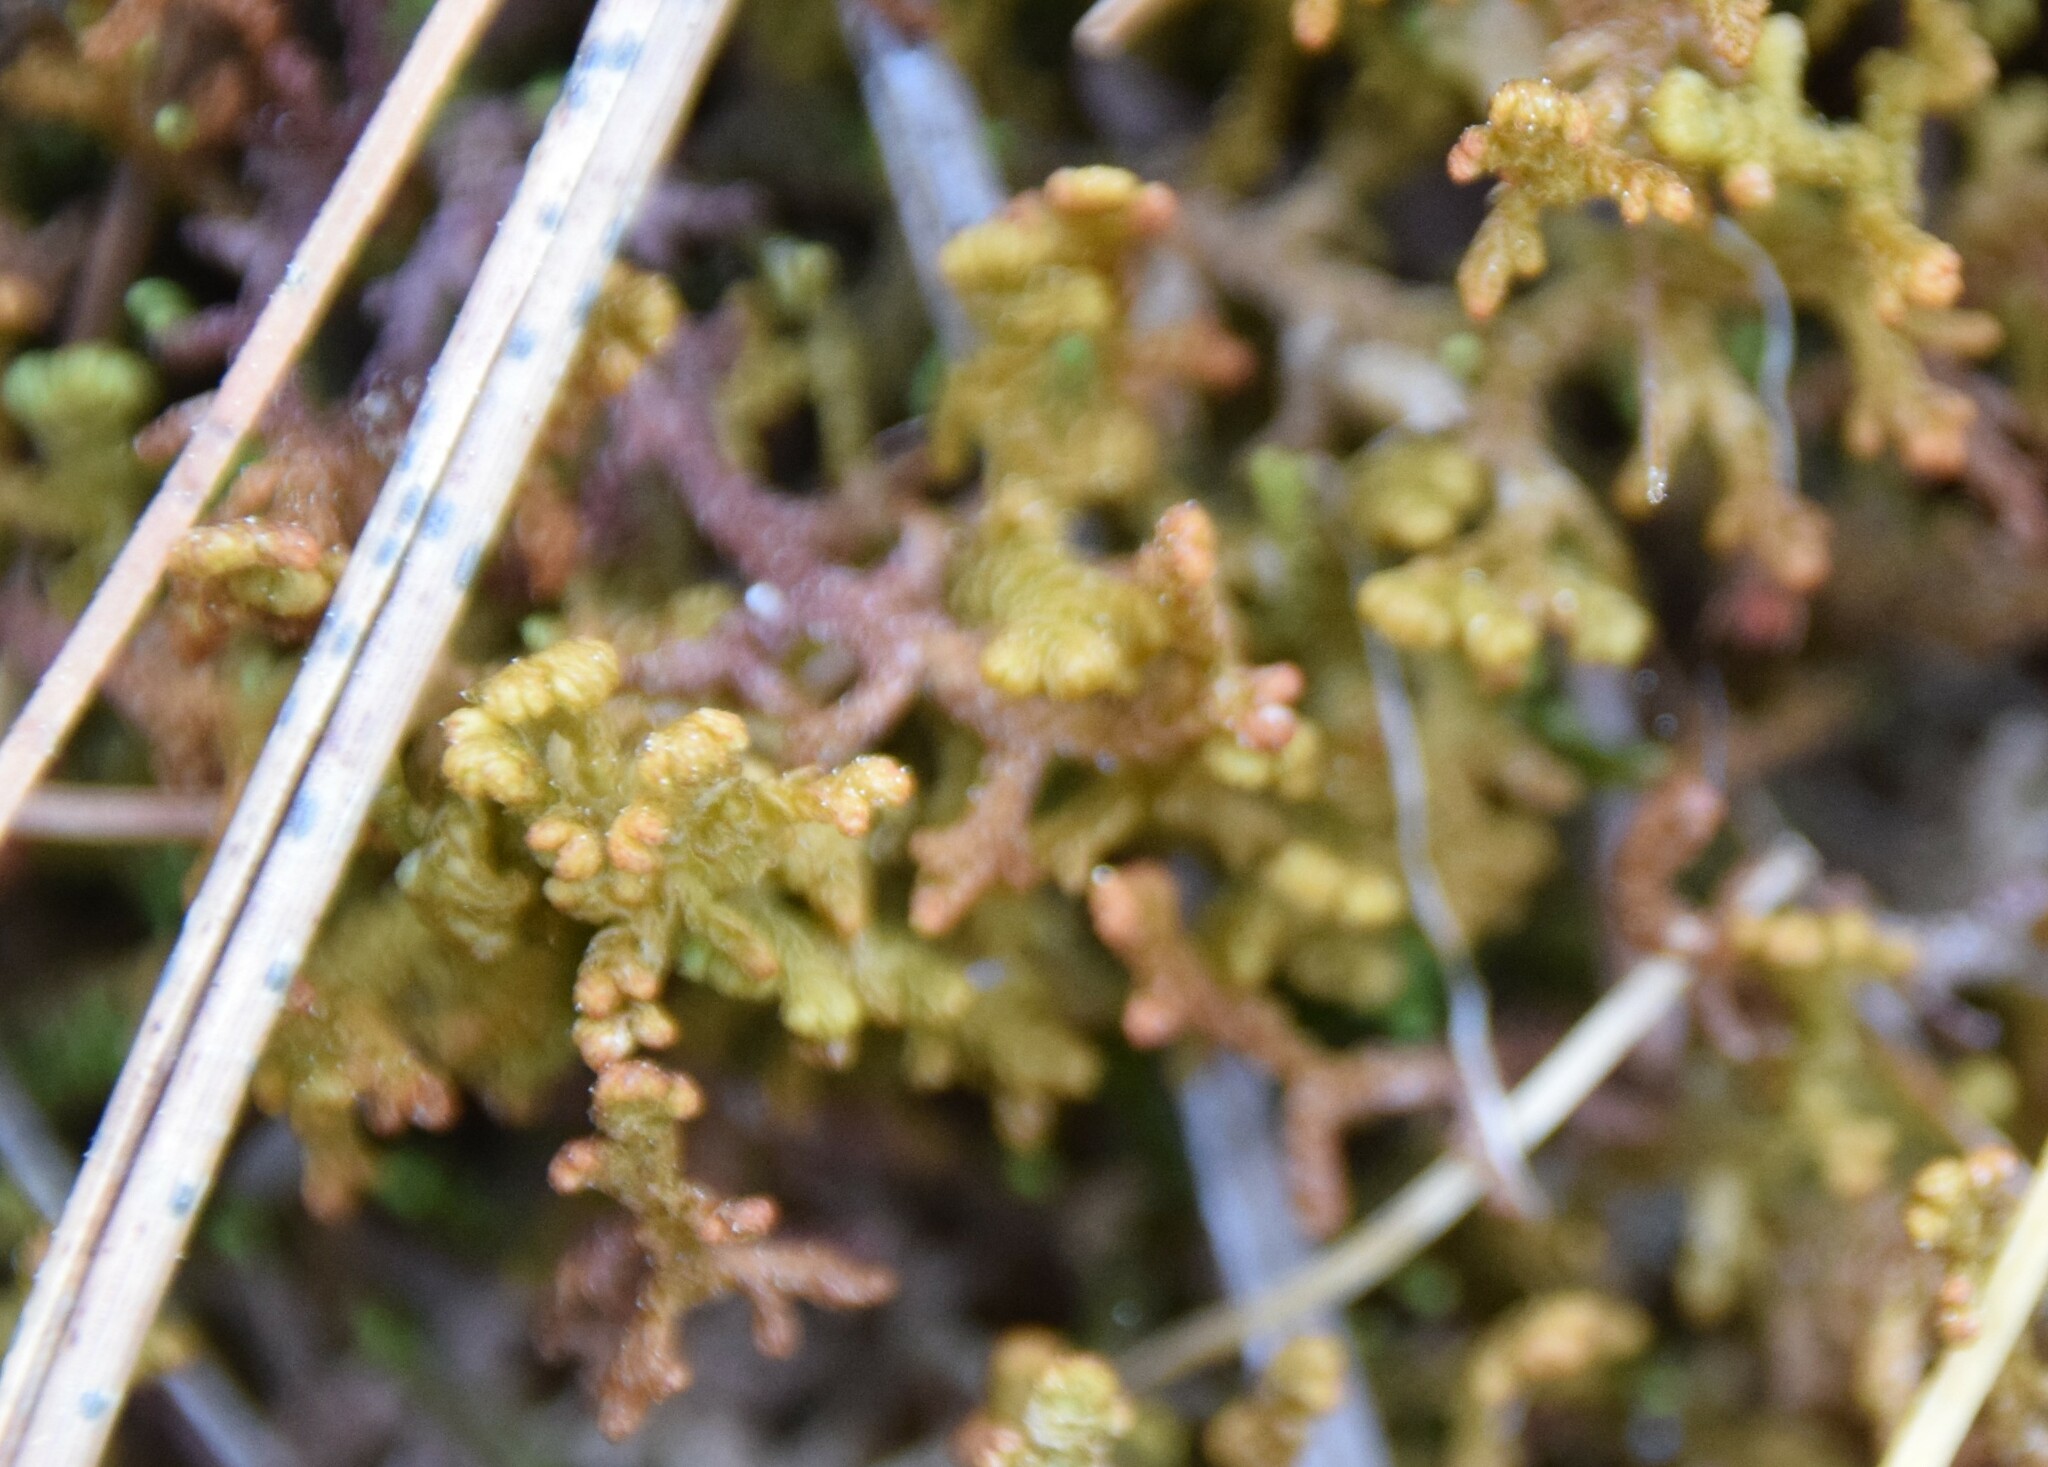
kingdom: Plantae
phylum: Marchantiophyta
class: Jungermanniopsida
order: Ptilidiales
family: Ptilidiaceae
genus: Ptilidium
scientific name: Ptilidium ciliare
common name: Ciliate fringewort
